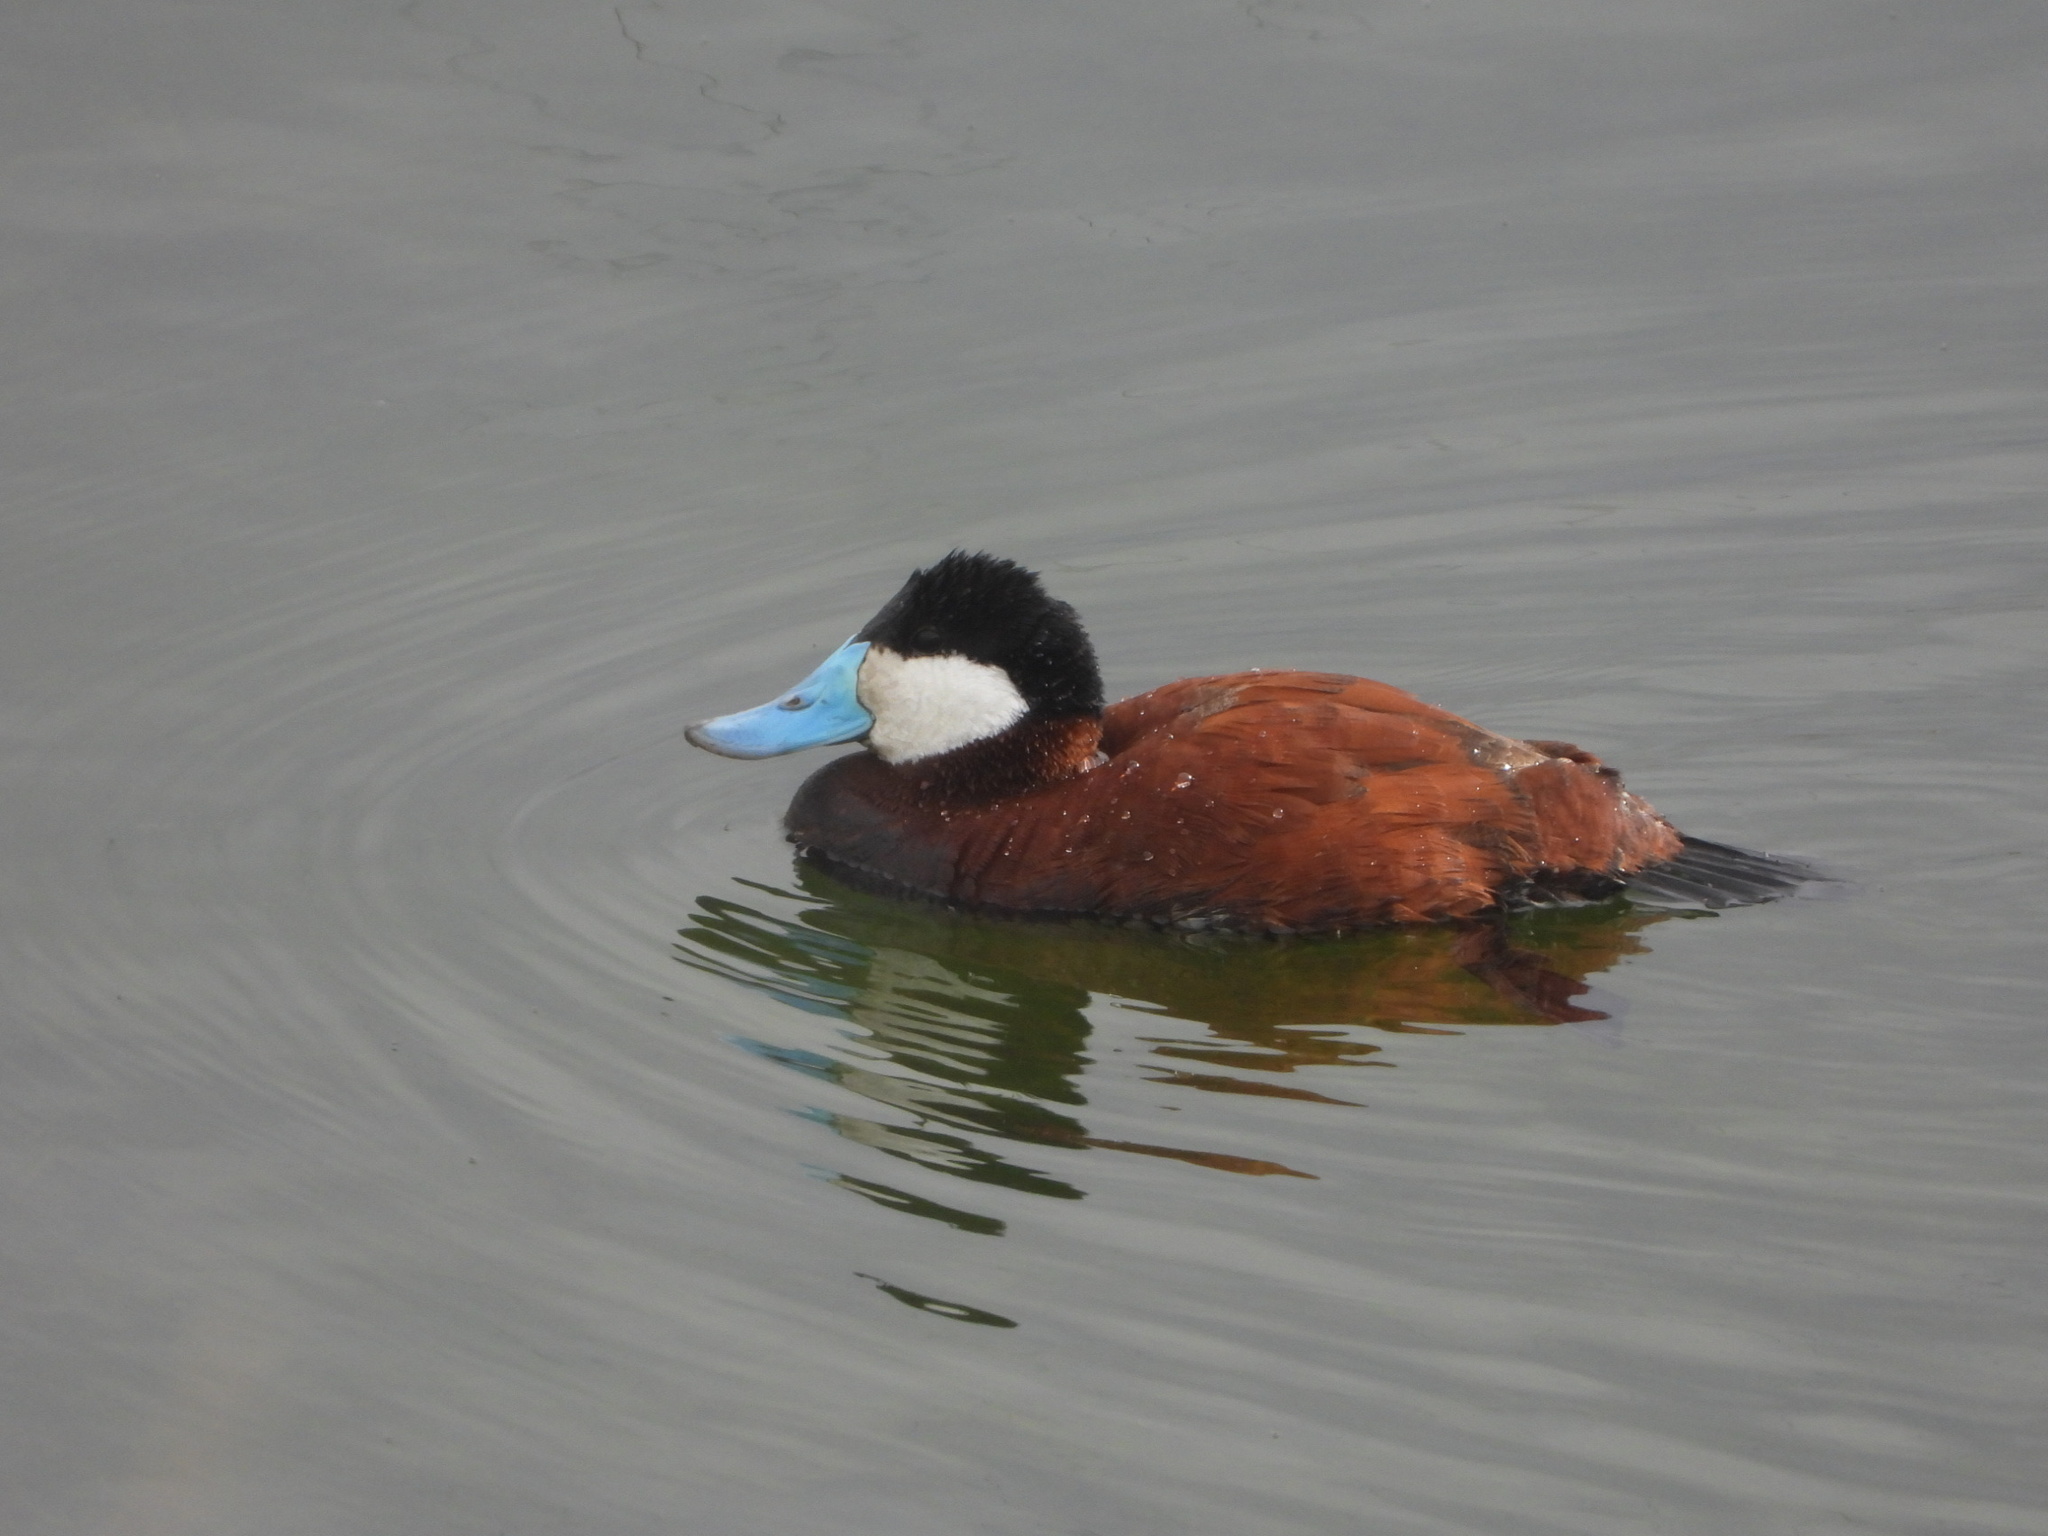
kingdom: Animalia
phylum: Chordata
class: Aves
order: Anseriformes
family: Anatidae
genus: Oxyura
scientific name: Oxyura jamaicensis
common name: Ruddy duck
